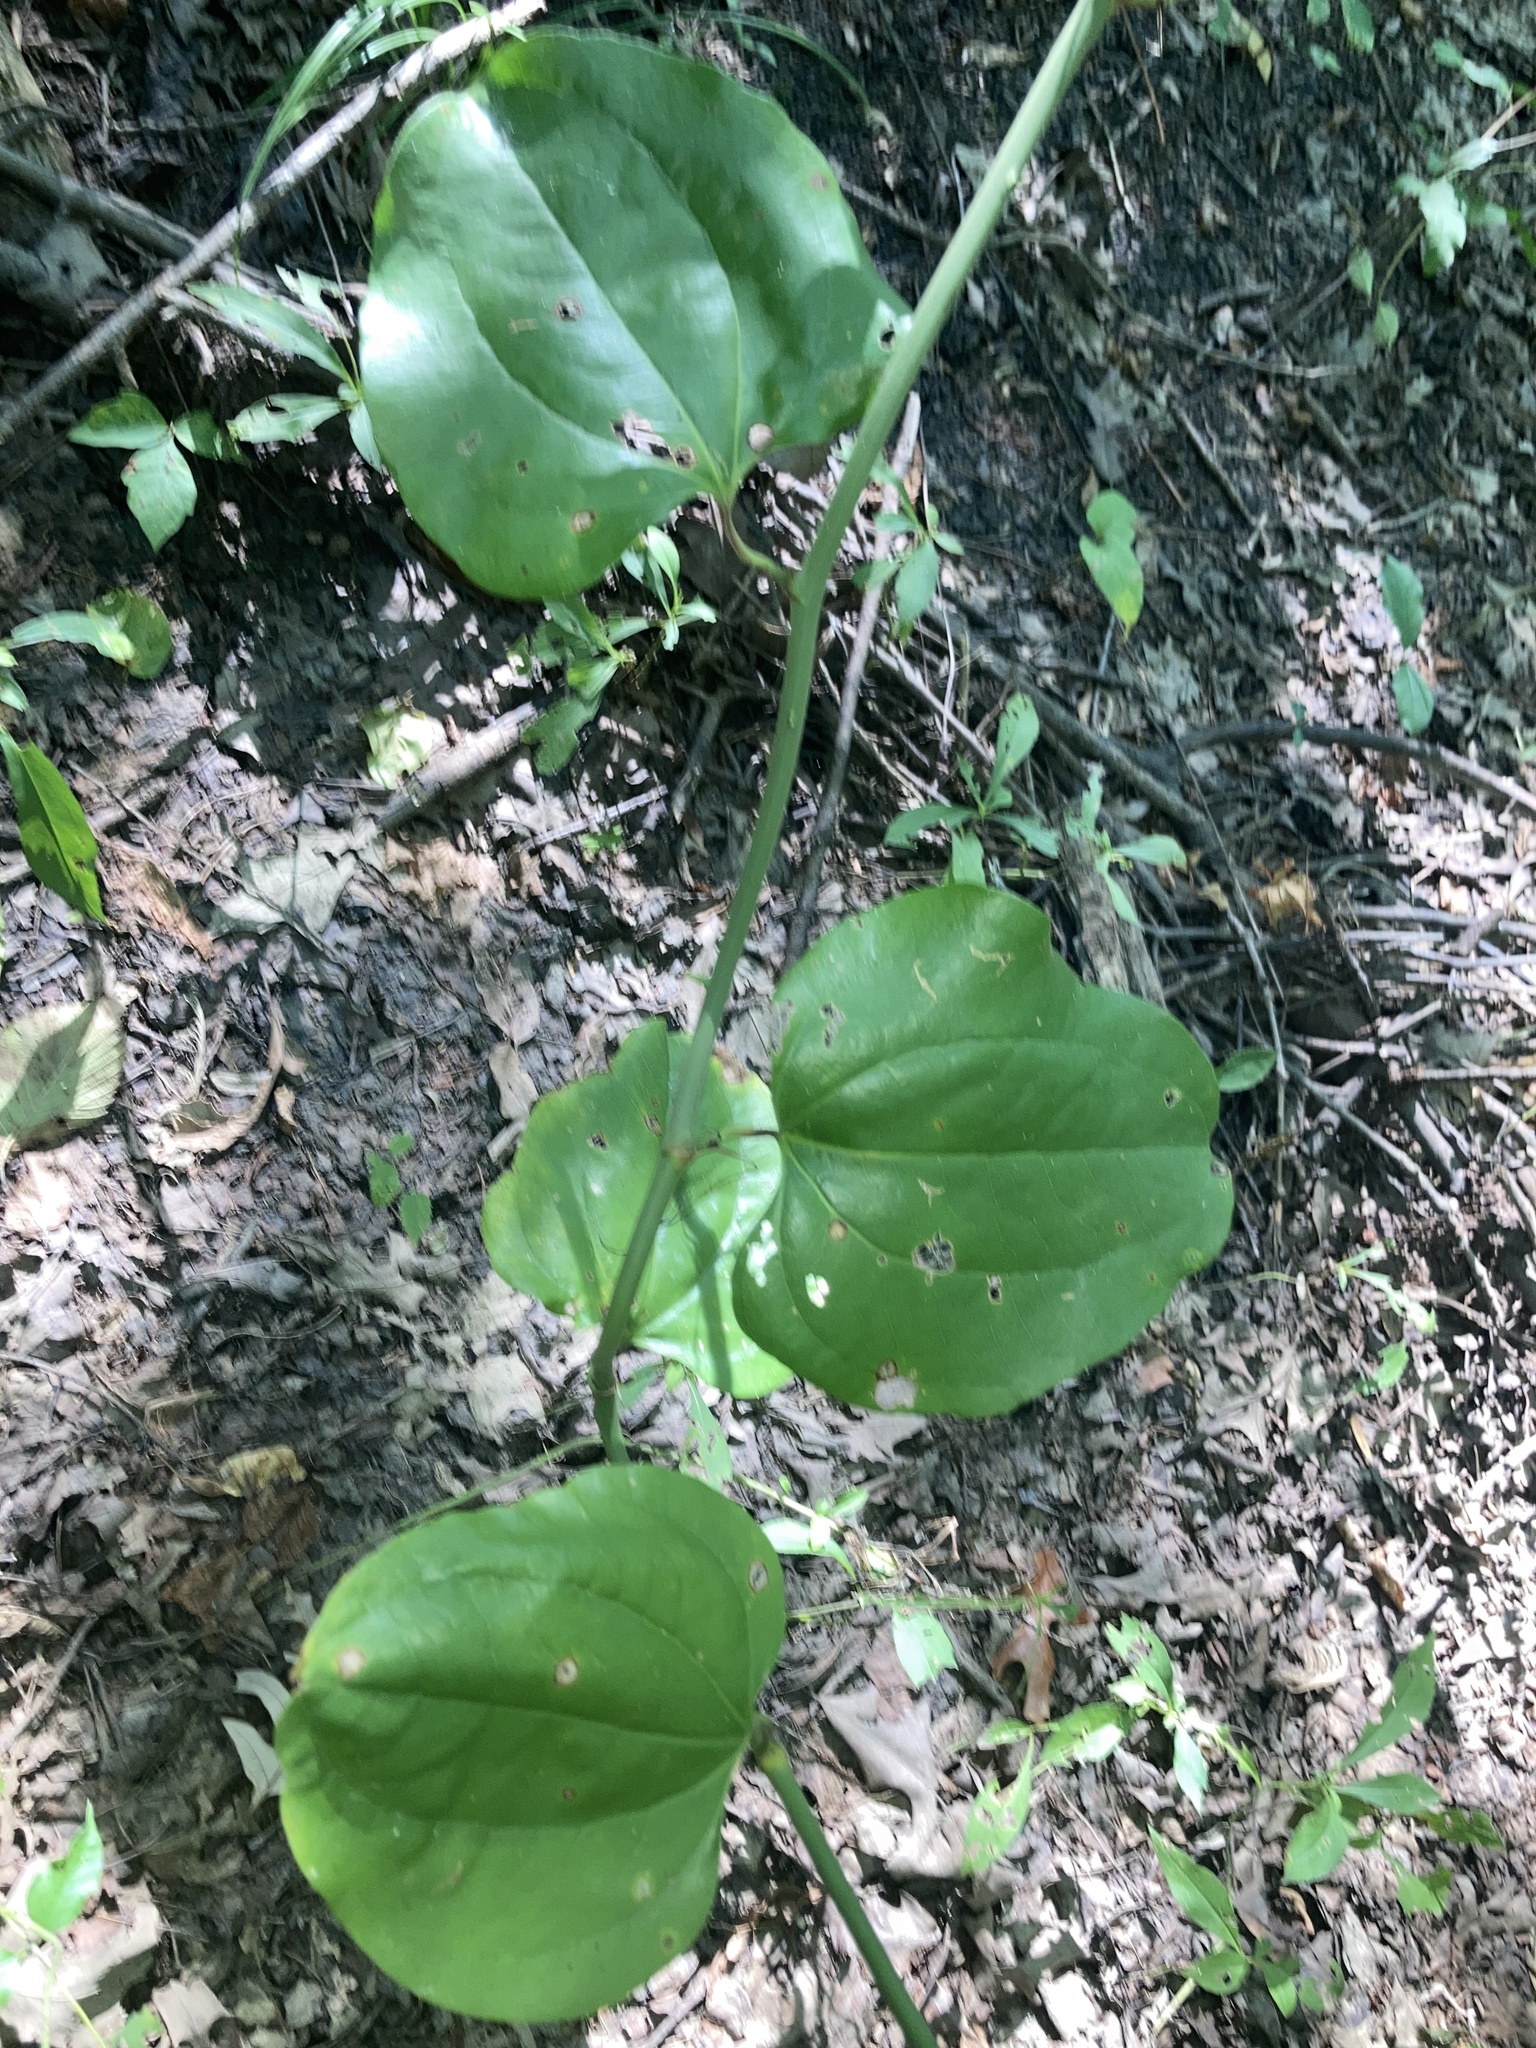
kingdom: Plantae
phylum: Tracheophyta
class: Liliopsida
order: Liliales
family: Smilacaceae
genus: Smilax
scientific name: Smilax rotundifolia
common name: Bullbriar
